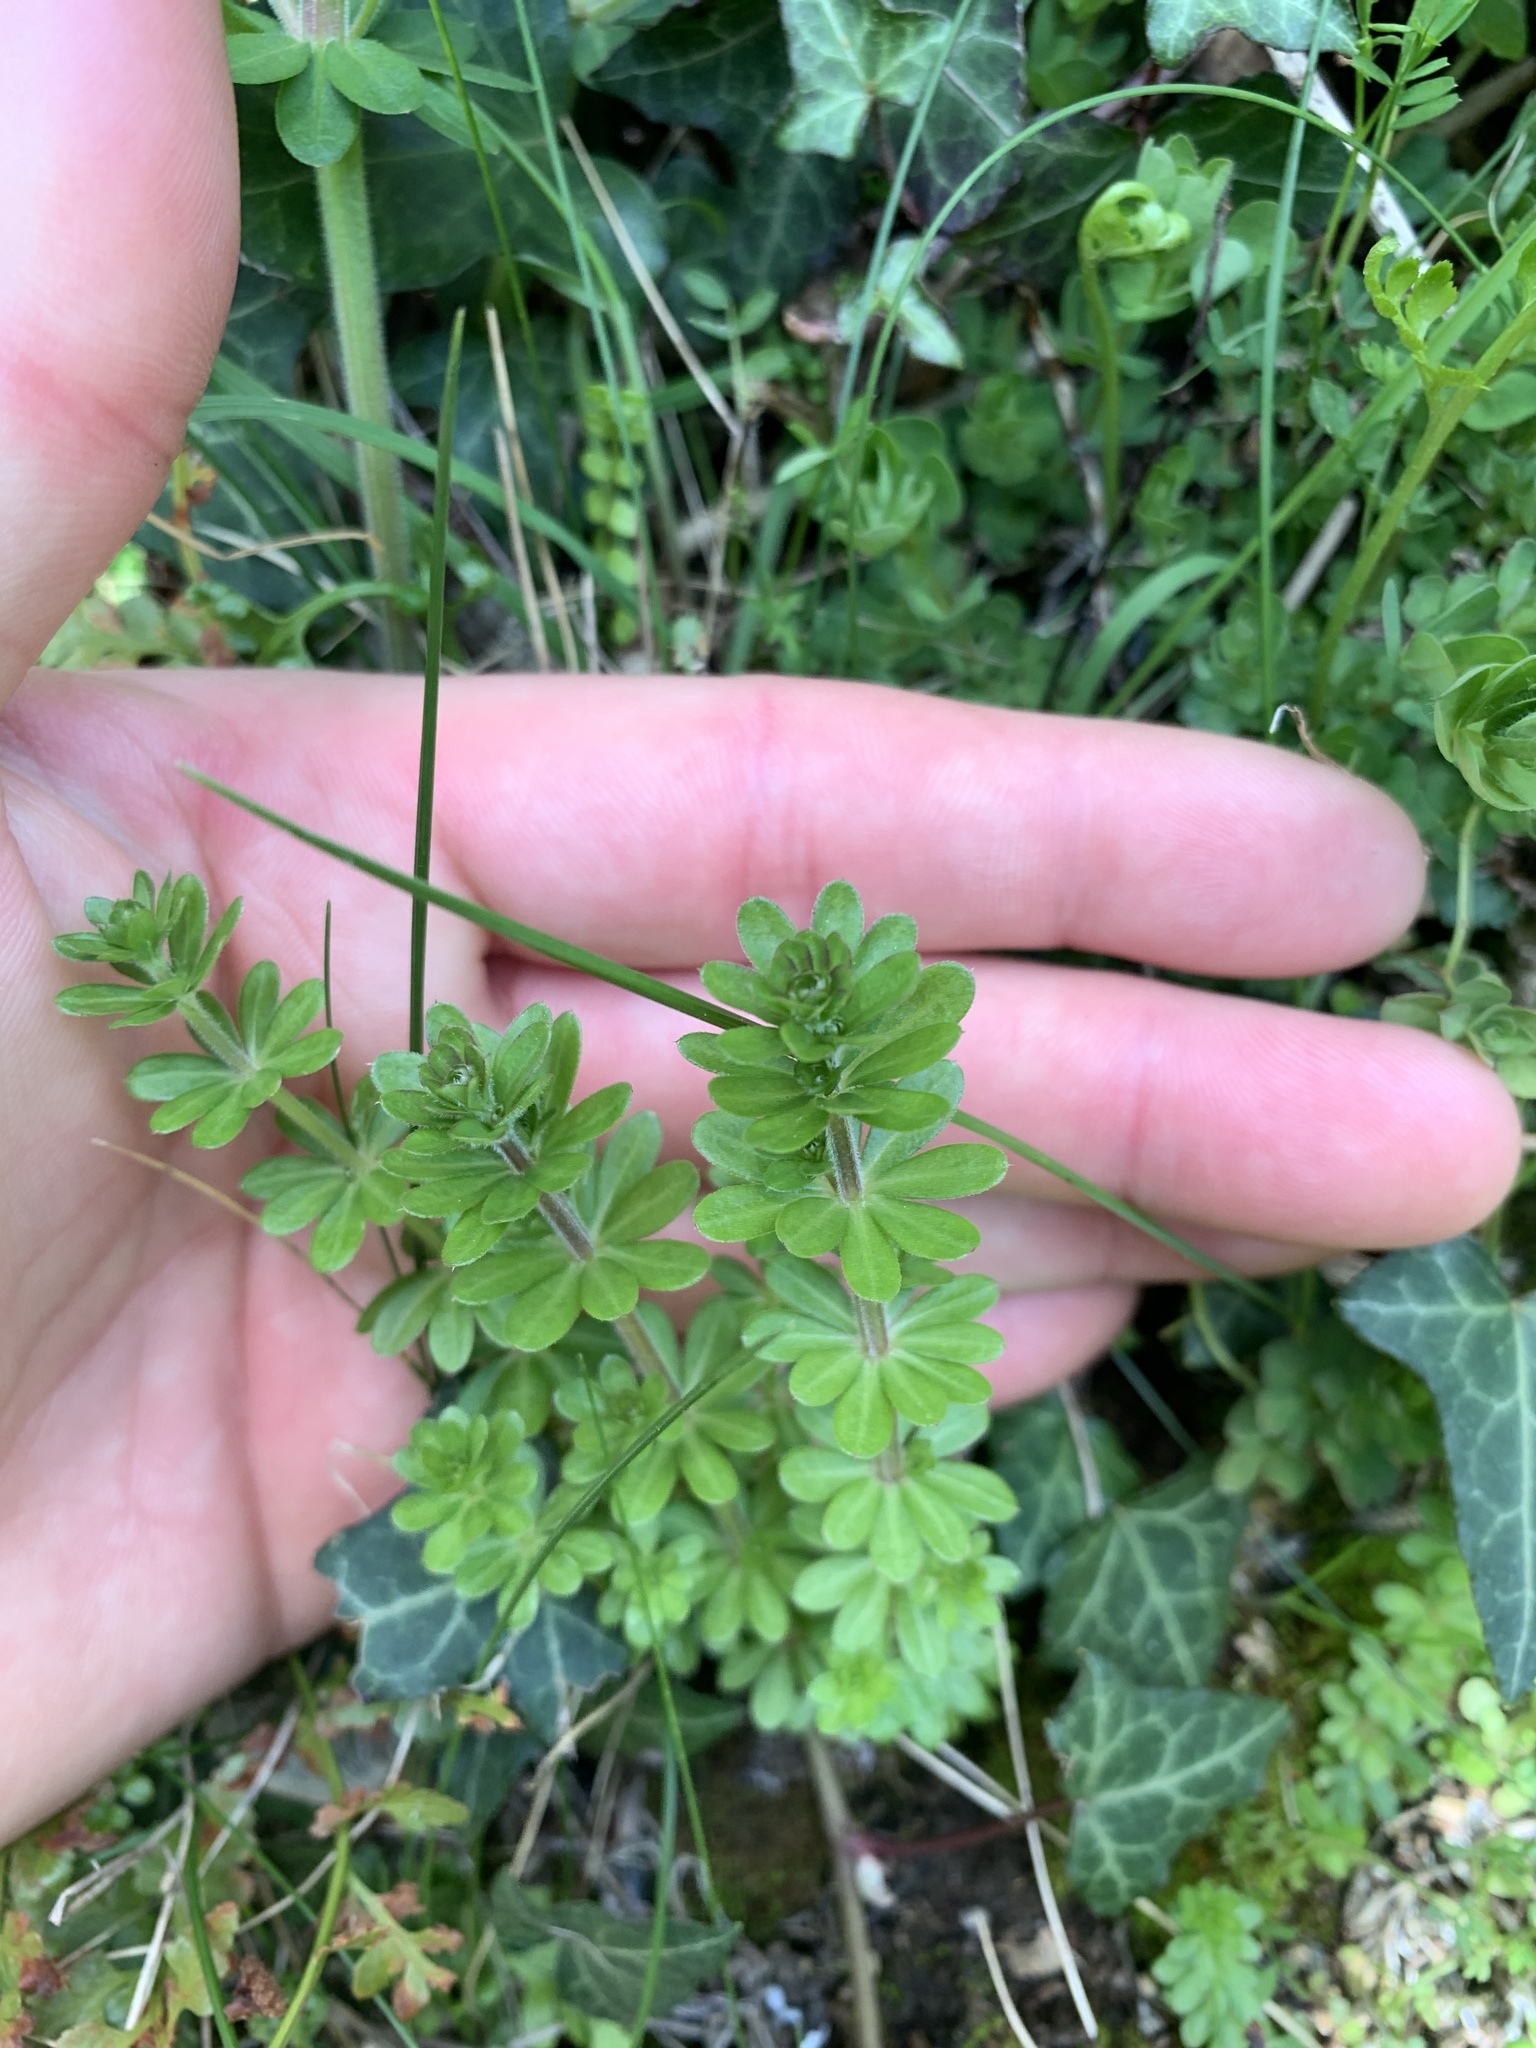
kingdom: Plantae
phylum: Tracheophyta
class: Magnoliopsida
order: Gentianales
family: Rubiaceae
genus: Galium
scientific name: Galium mollugo
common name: Hedge bedstraw
